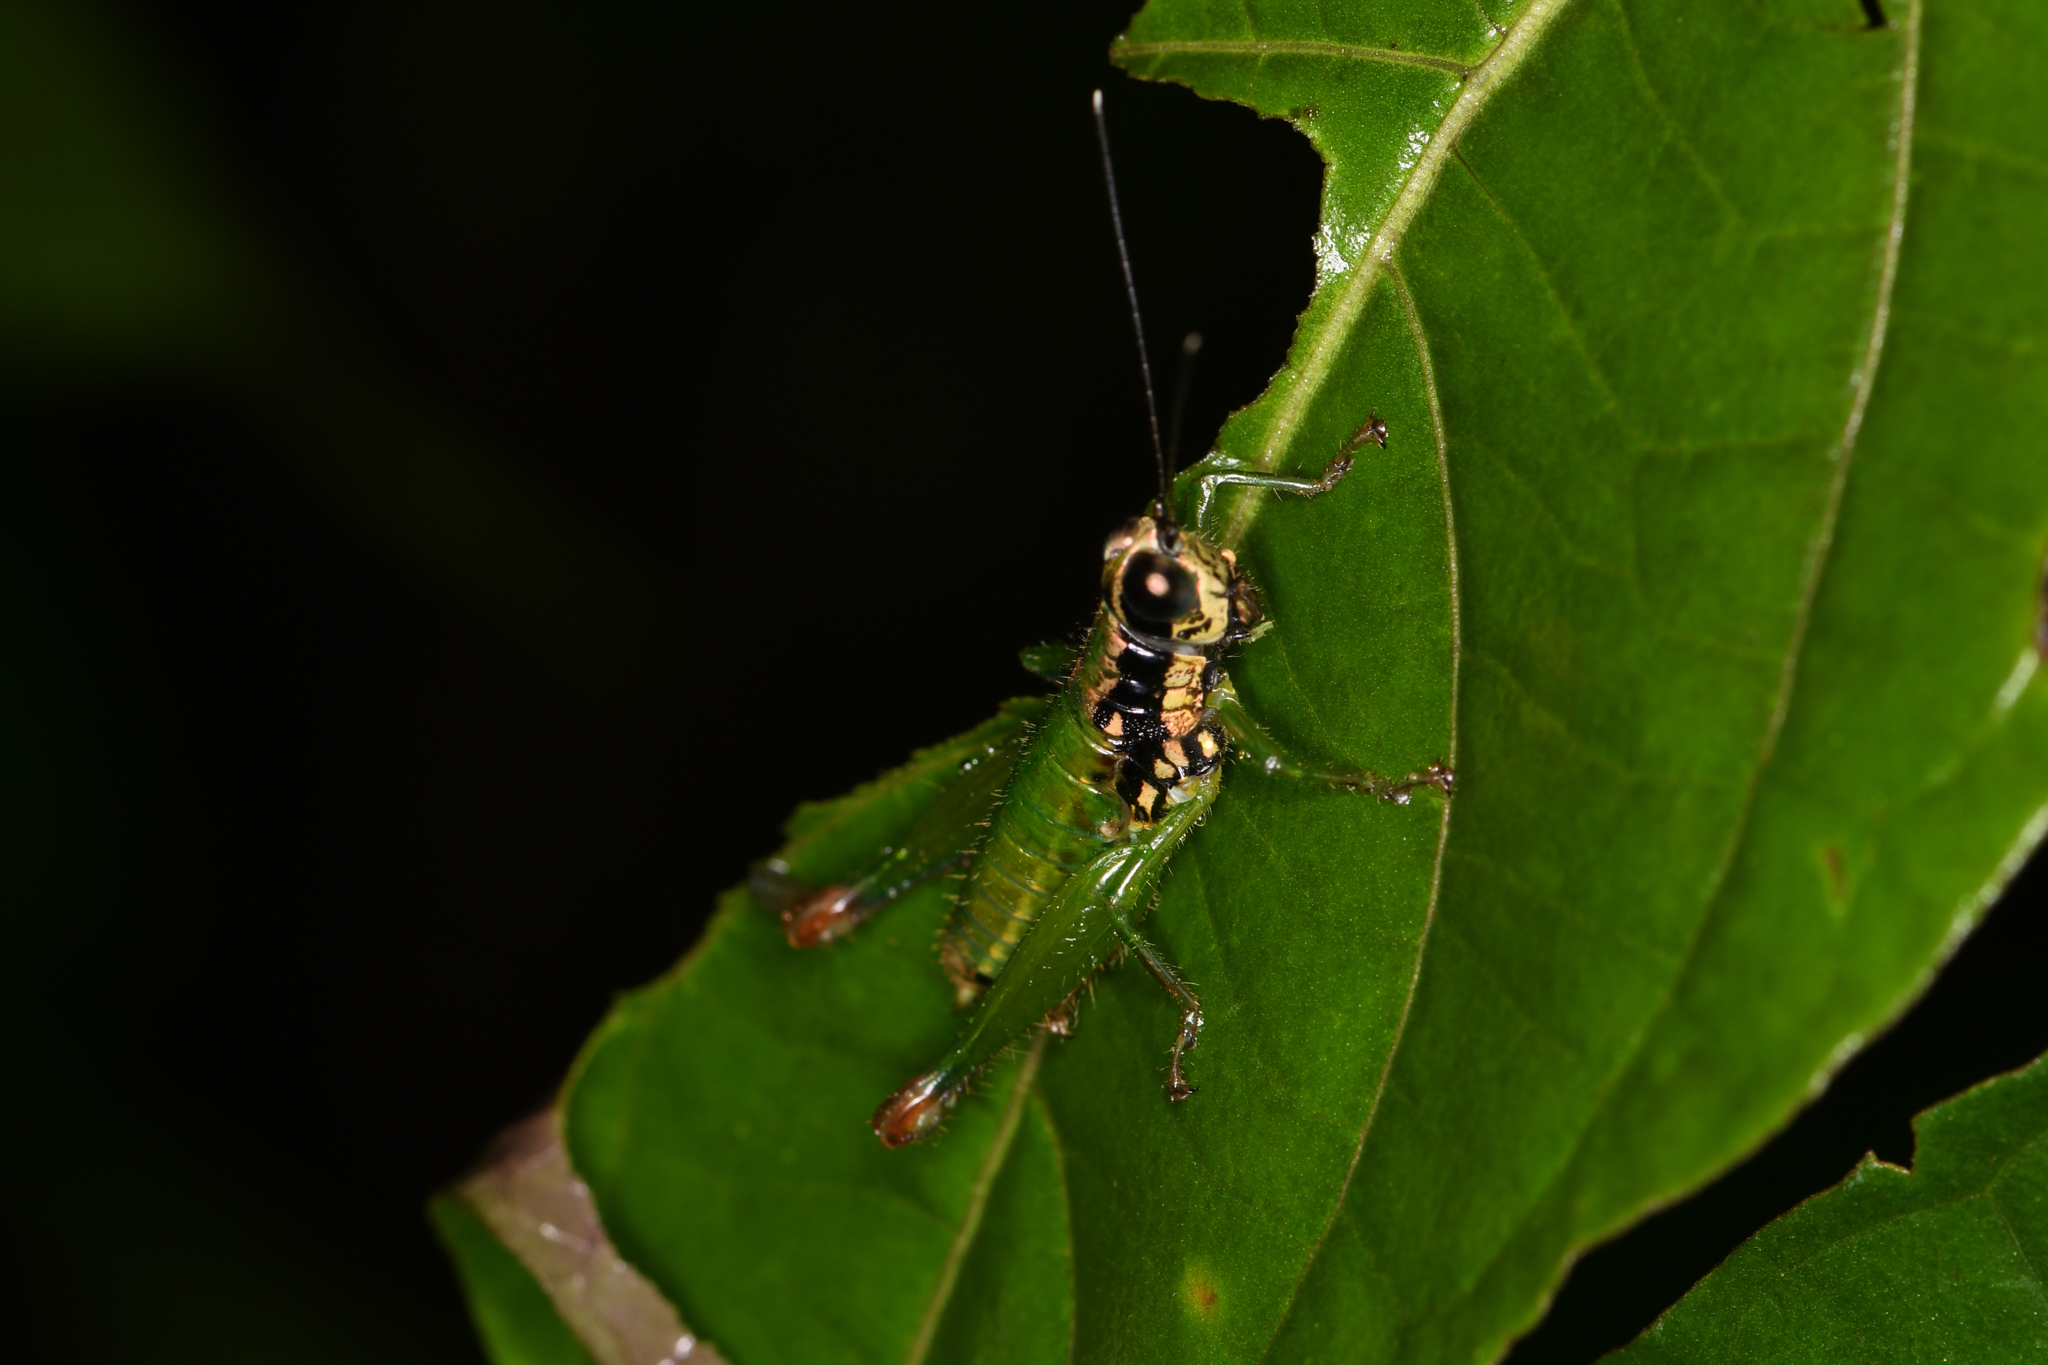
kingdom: Animalia
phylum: Arthropoda
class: Insecta
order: Orthoptera
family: Acrididae
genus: Drymophilacris
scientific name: Drymophilacris bimaculata
